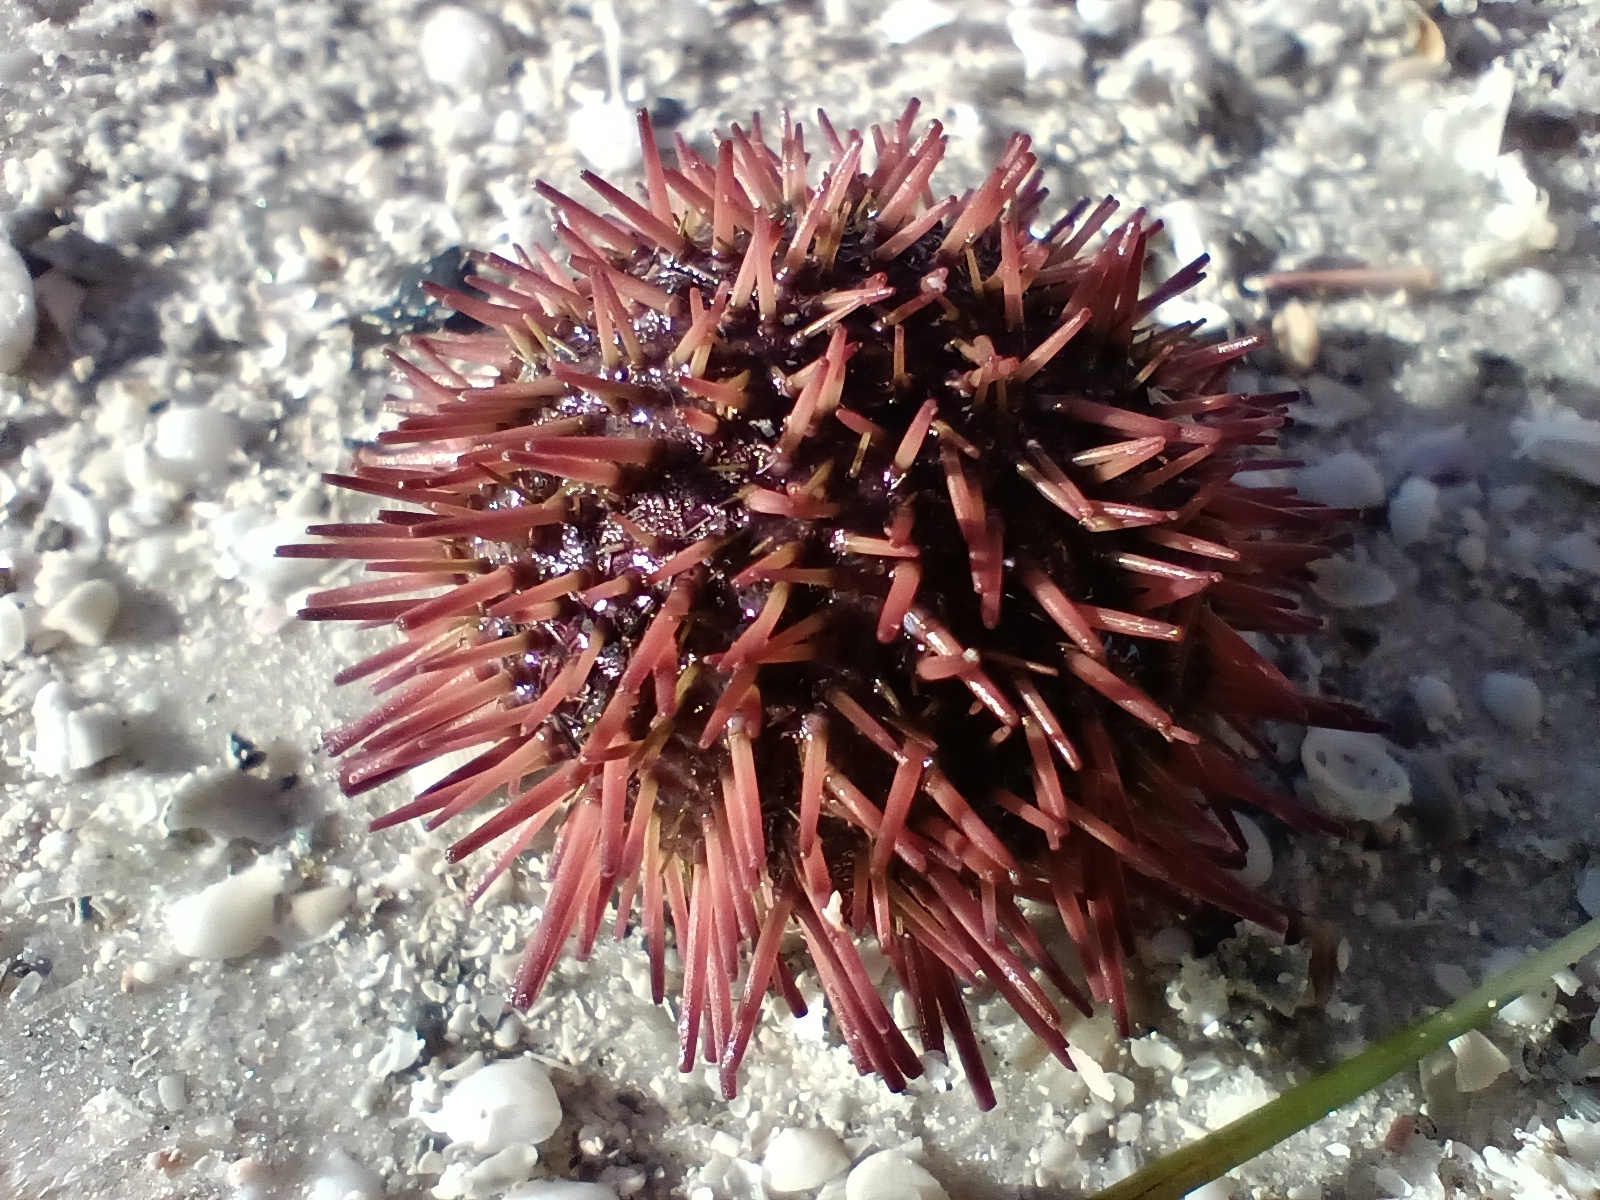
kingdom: Animalia
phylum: Echinodermata
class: Echinoidea
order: Camarodonta
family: Toxopneustidae
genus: Lytechinus
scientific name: Lytechinus variegatus
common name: Variegated urchin
